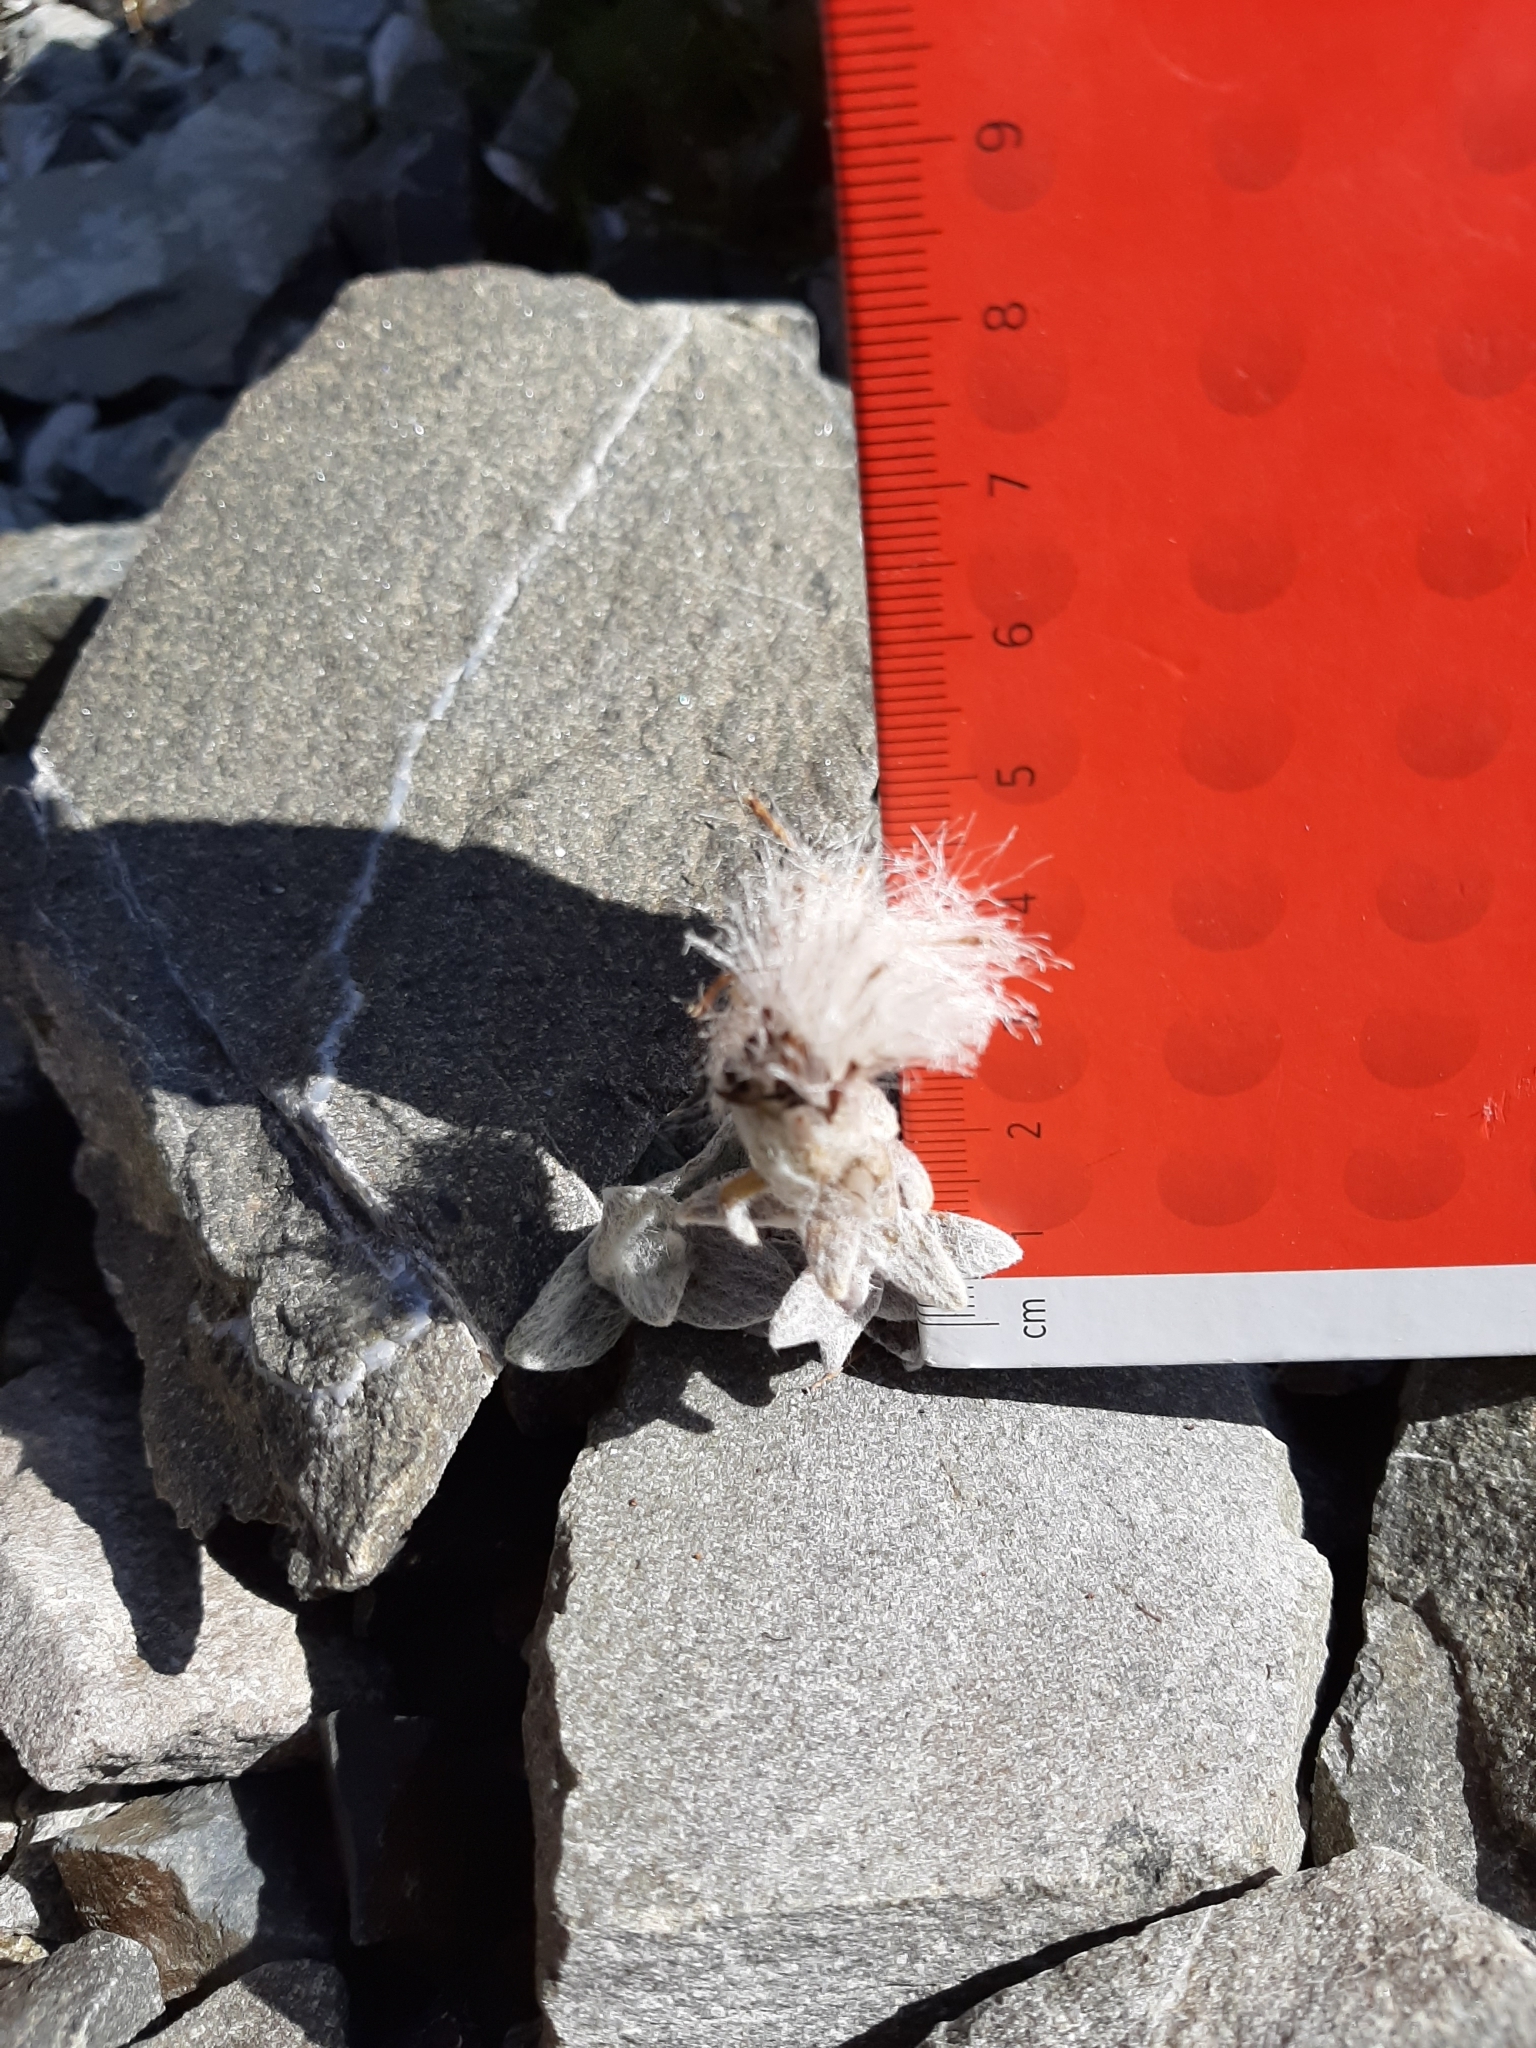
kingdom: Plantae
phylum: Tracheophyta
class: Magnoliopsida
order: Asterales
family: Asteraceae
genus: Haastia
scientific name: Haastia sinclairii
